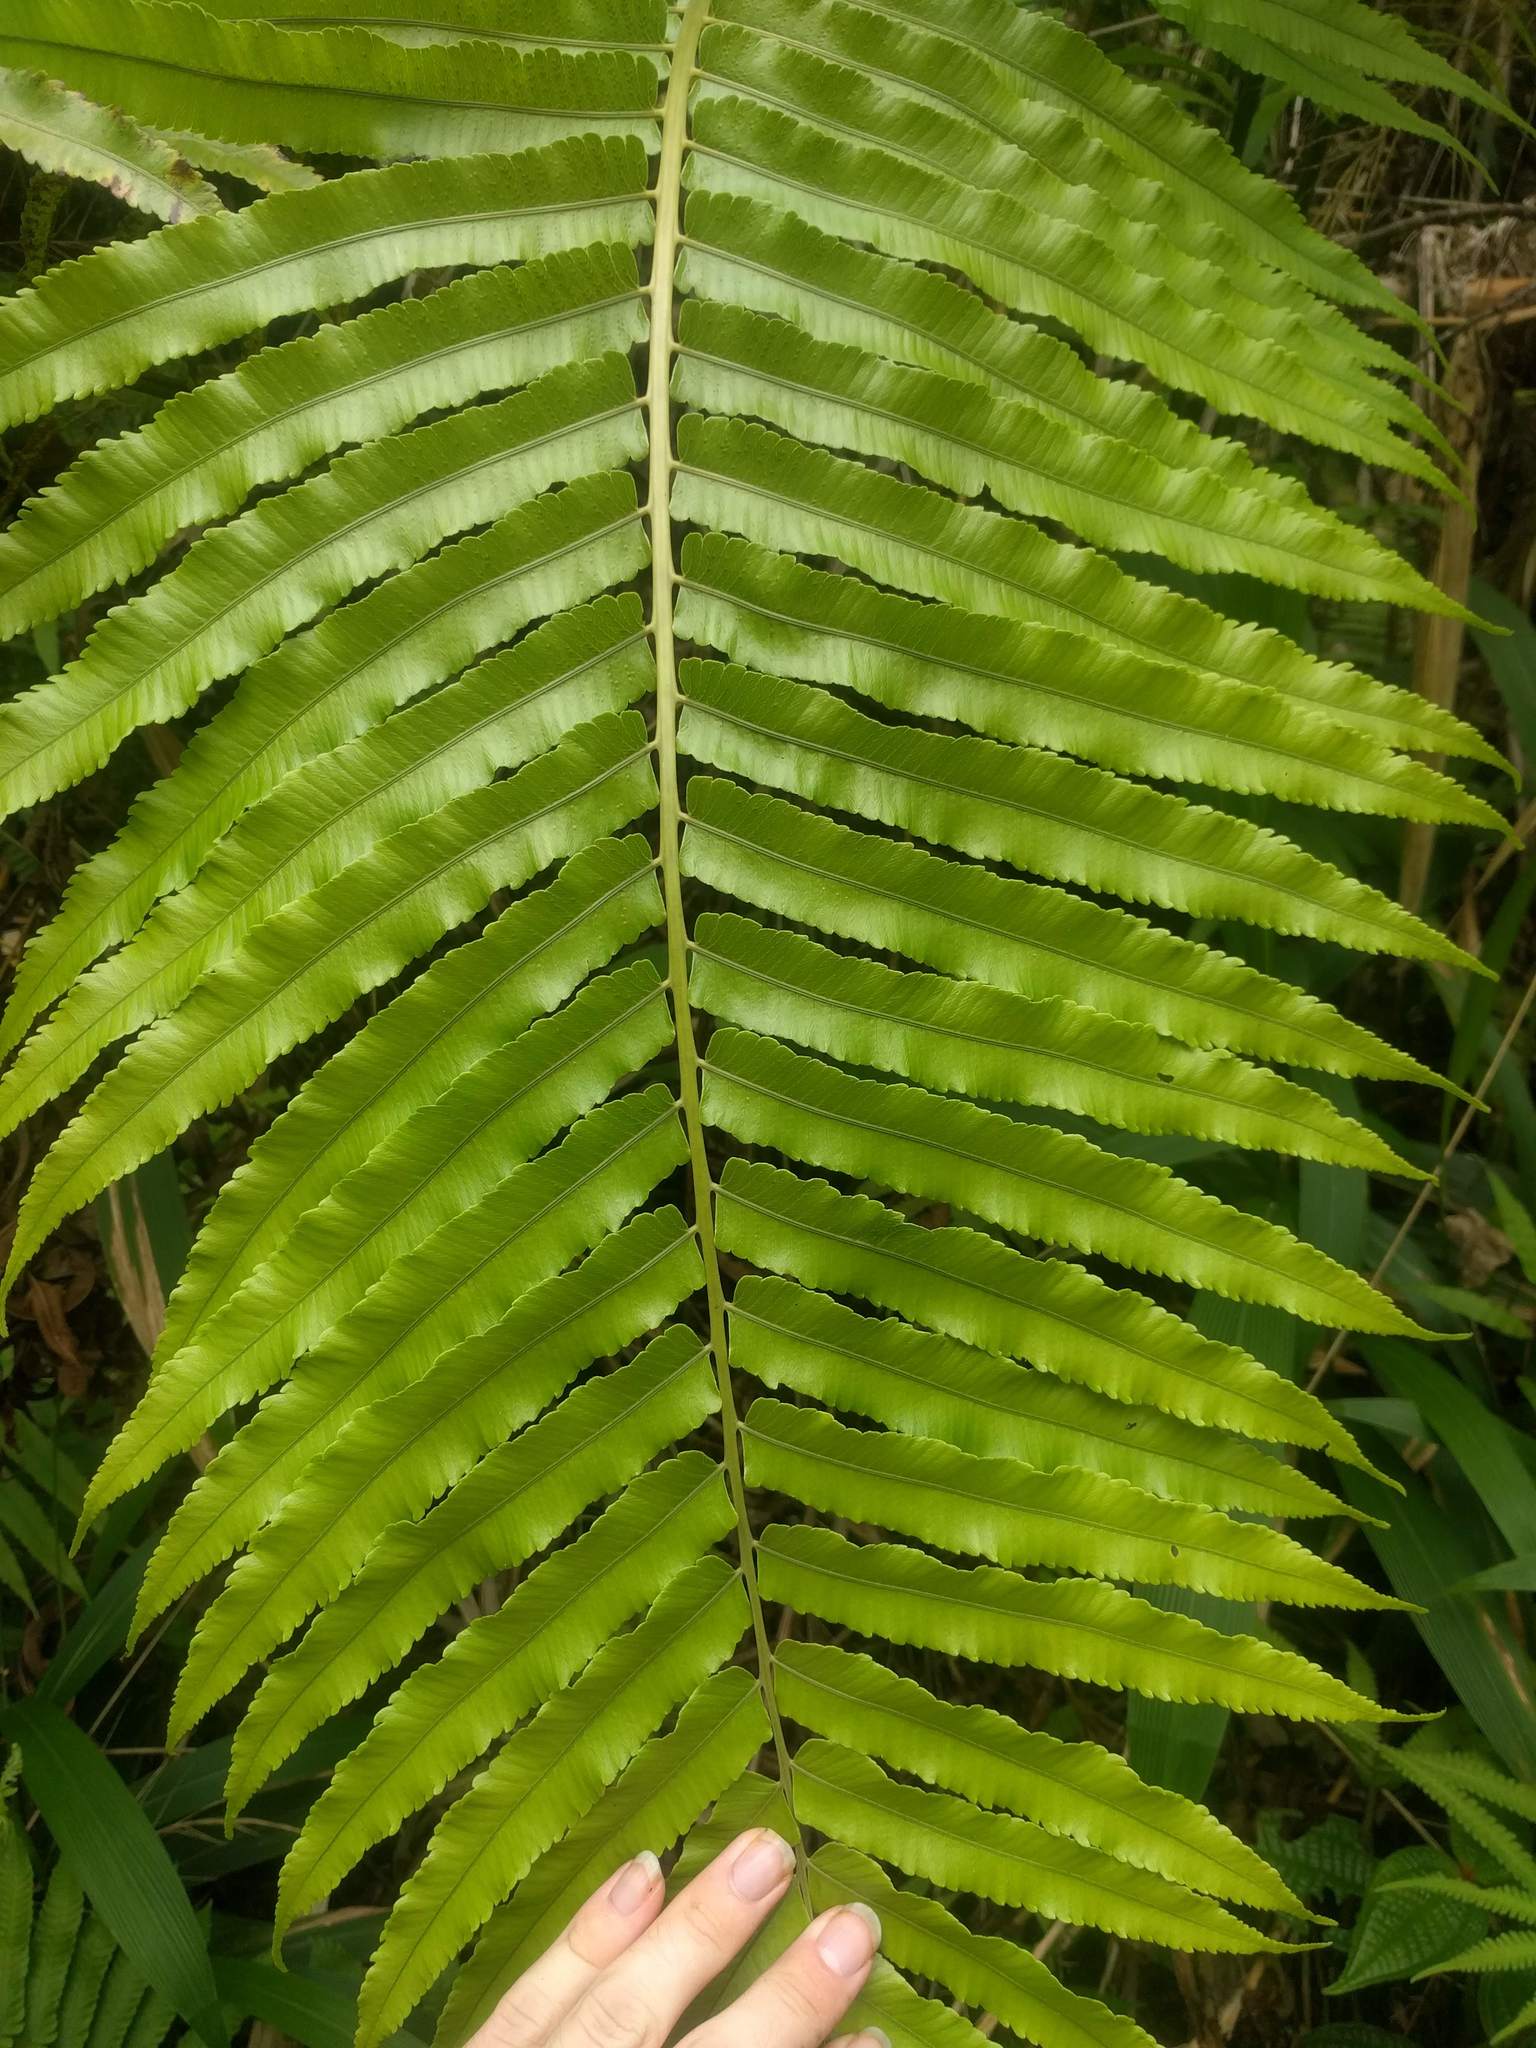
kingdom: Plantae
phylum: Tracheophyta
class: Polypodiopsida
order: Polypodiales
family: Thelypteridaceae
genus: Menisciopsis
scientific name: Menisciopsis cyatheoides
